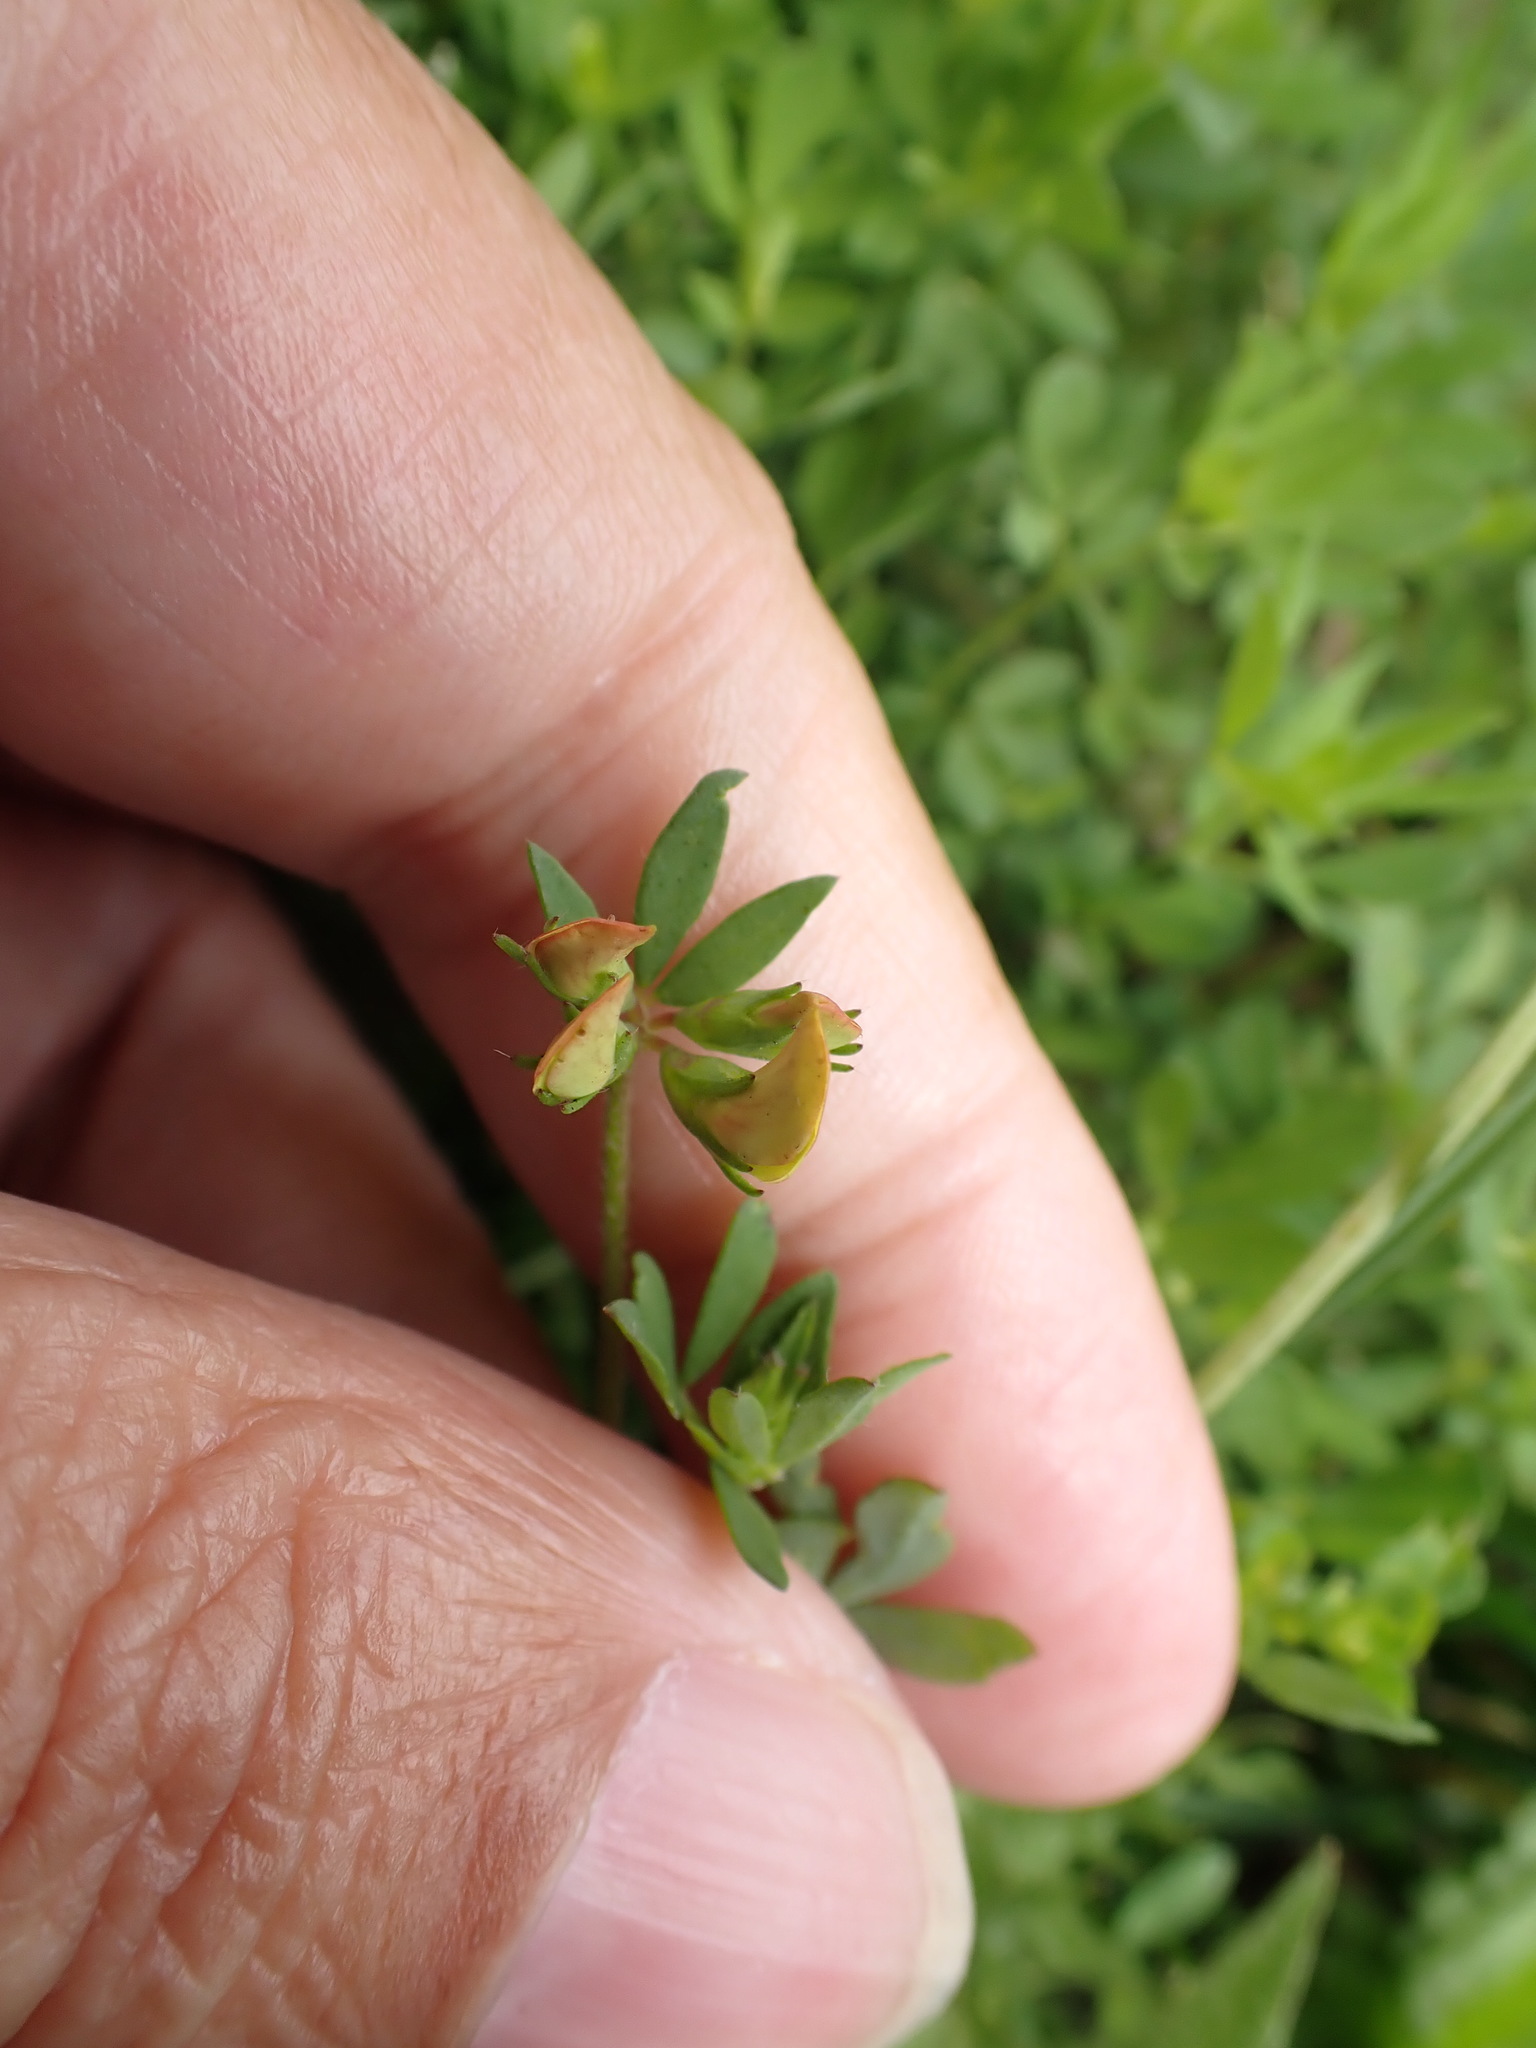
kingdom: Plantae
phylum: Tracheophyta
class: Magnoliopsida
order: Fabales
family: Fabaceae
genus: Lotus
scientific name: Lotus corniculatus
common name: Common bird's-foot-trefoil
